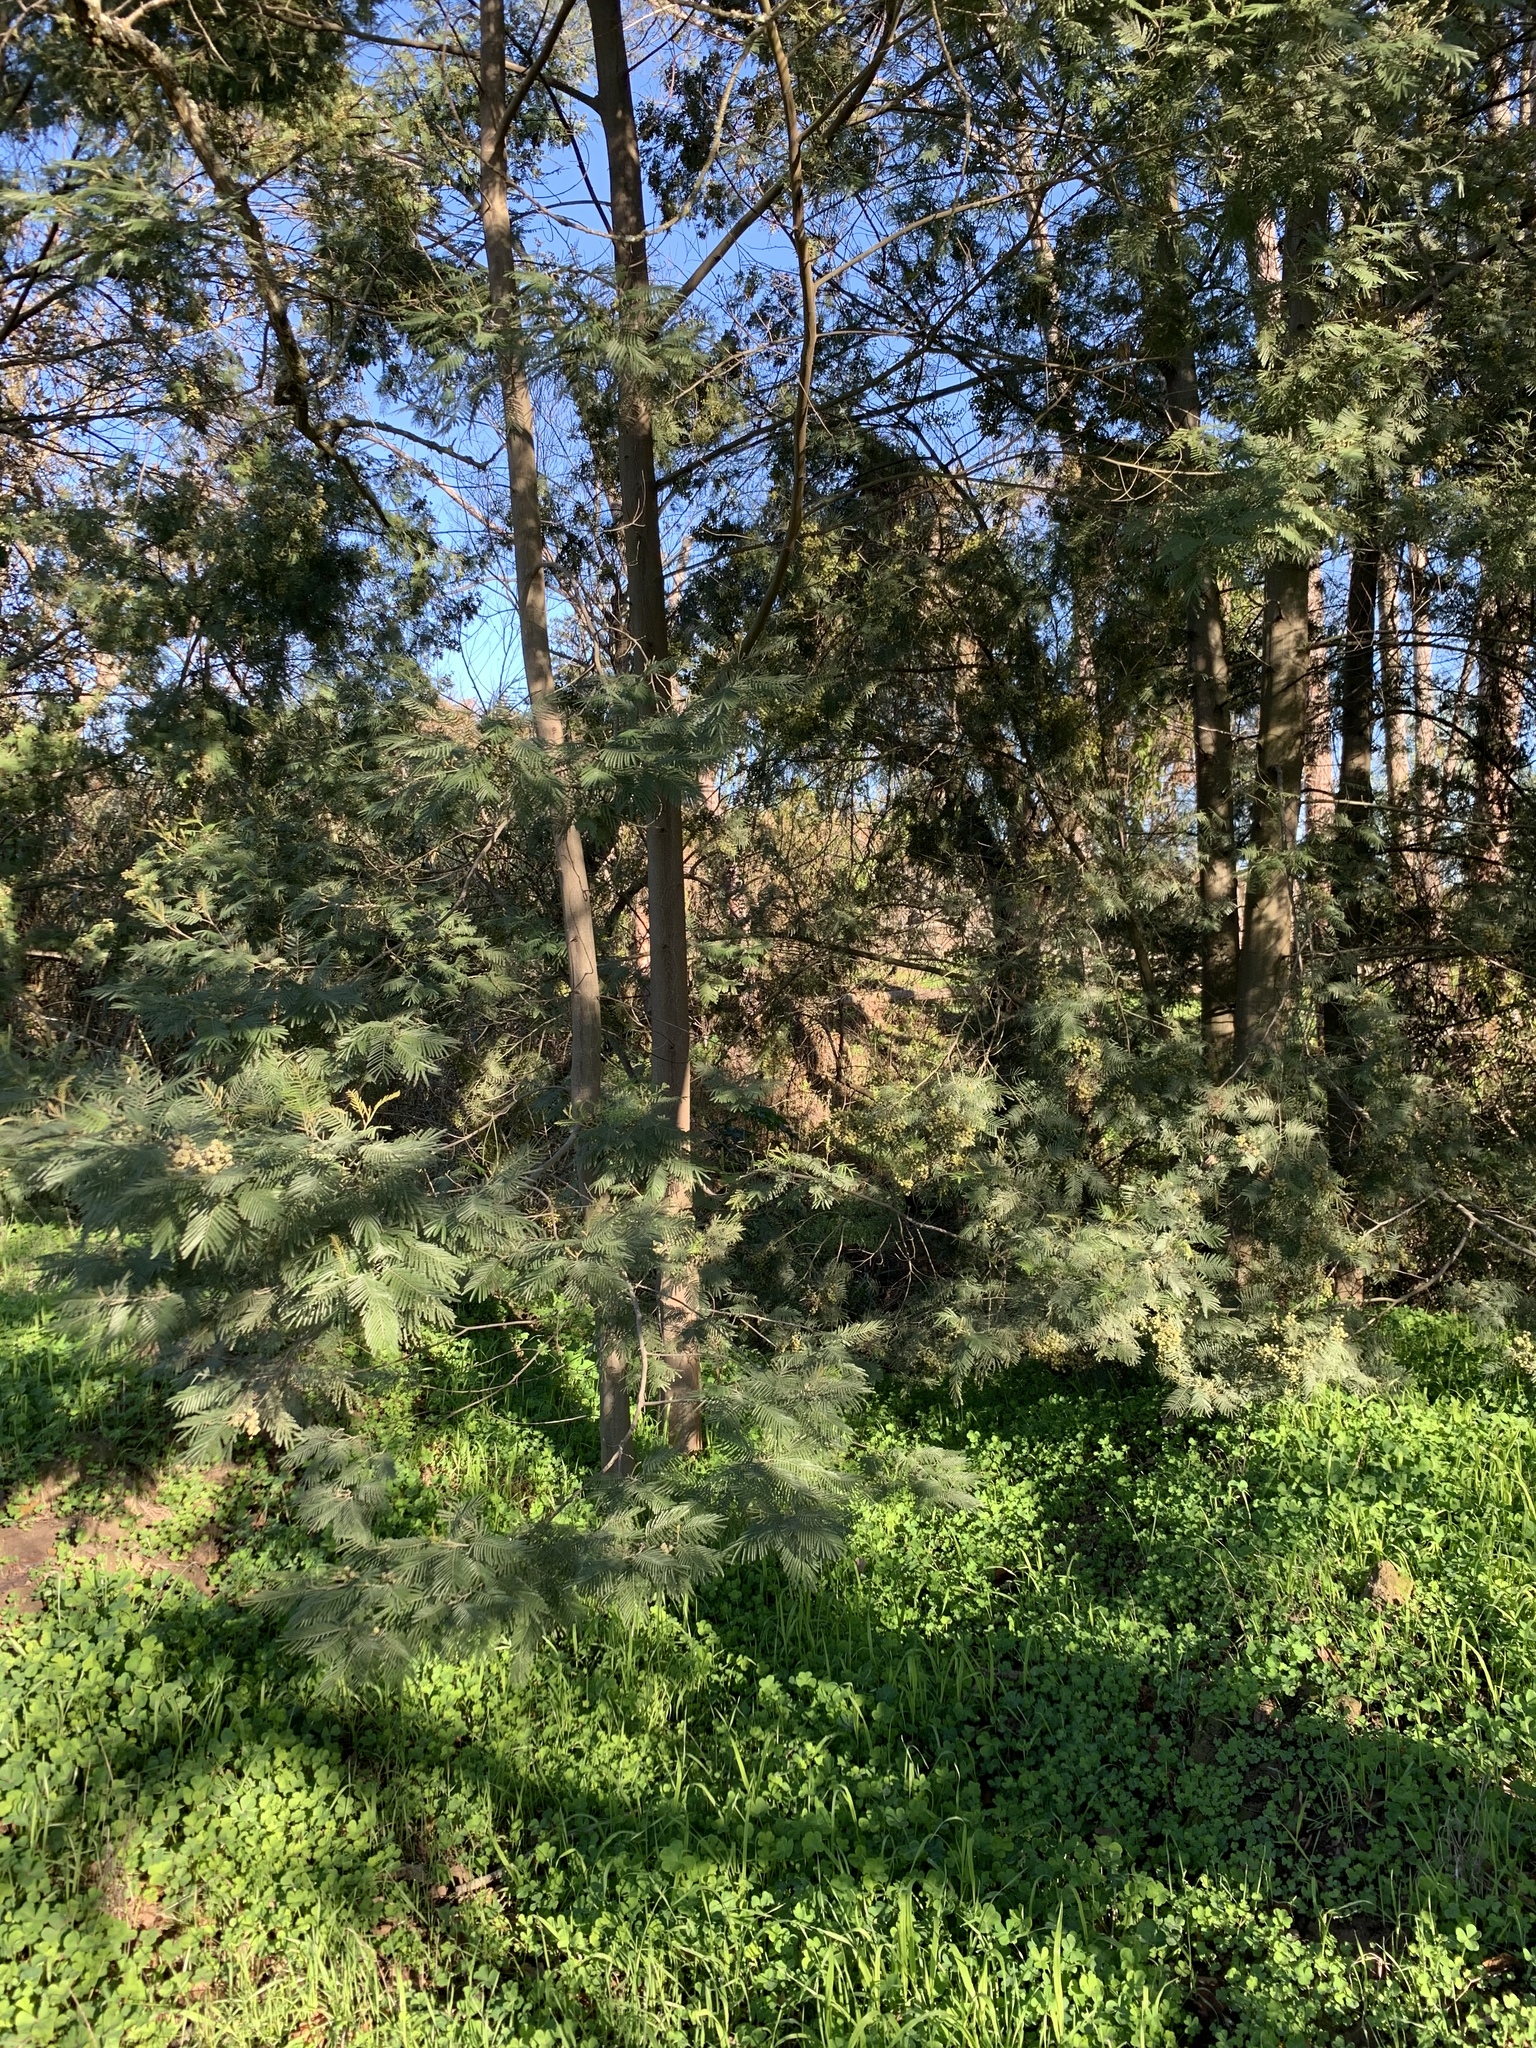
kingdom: Plantae
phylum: Tracheophyta
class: Magnoliopsida
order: Fabales
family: Fabaceae
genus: Acacia
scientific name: Acacia mearnsii
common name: Black wattle
